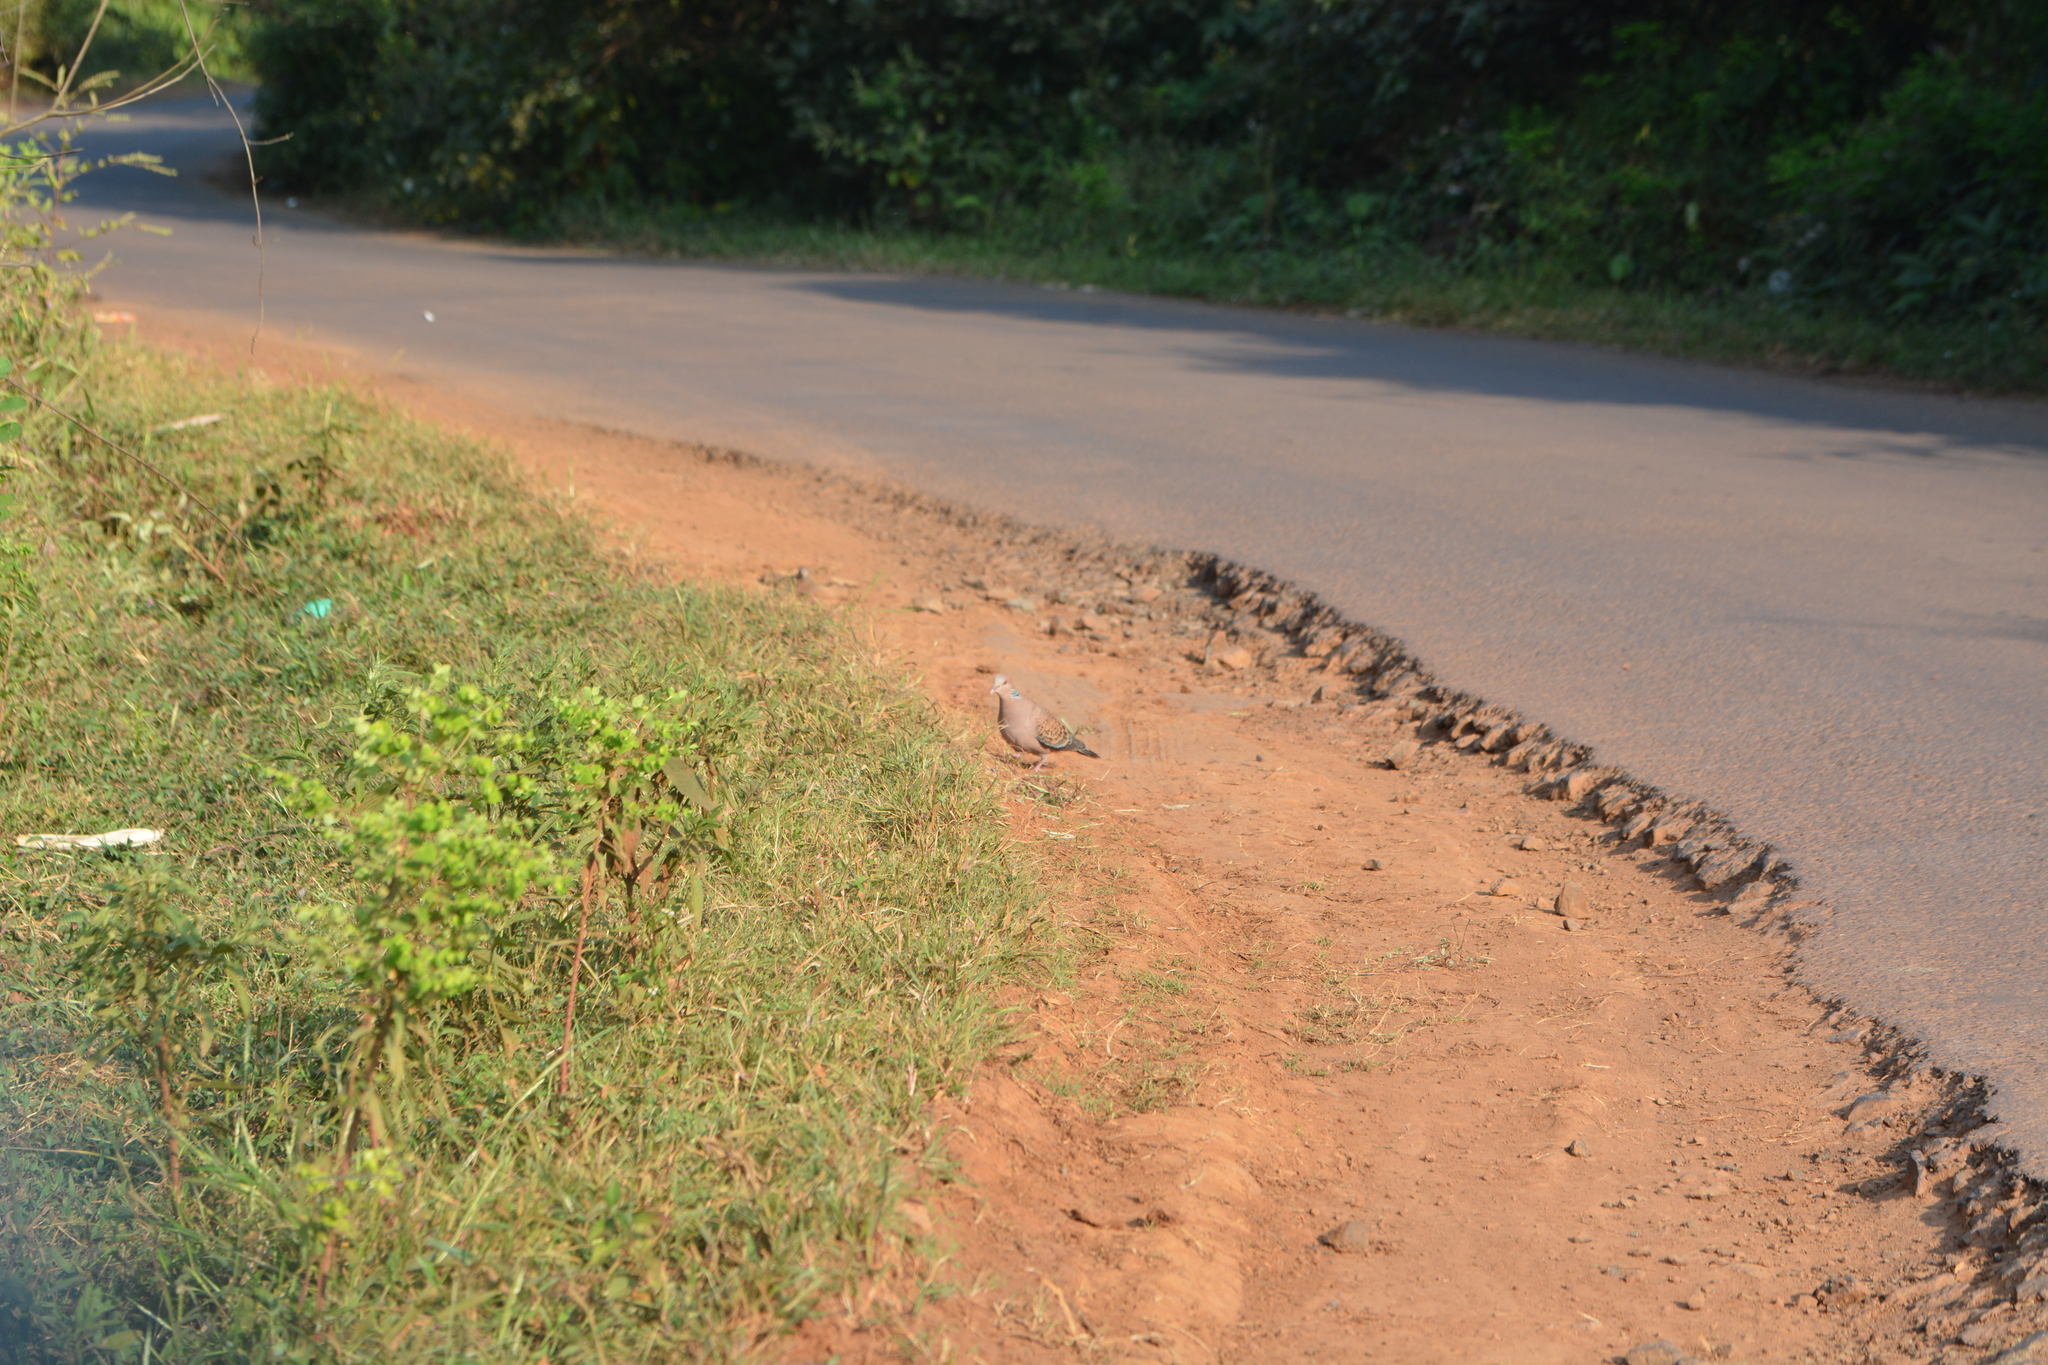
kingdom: Animalia
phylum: Chordata
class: Aves
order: Columbiformes
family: Columbidae
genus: Streptopelia
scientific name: Streptopelia orientalis
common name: Oriental turtle dove
